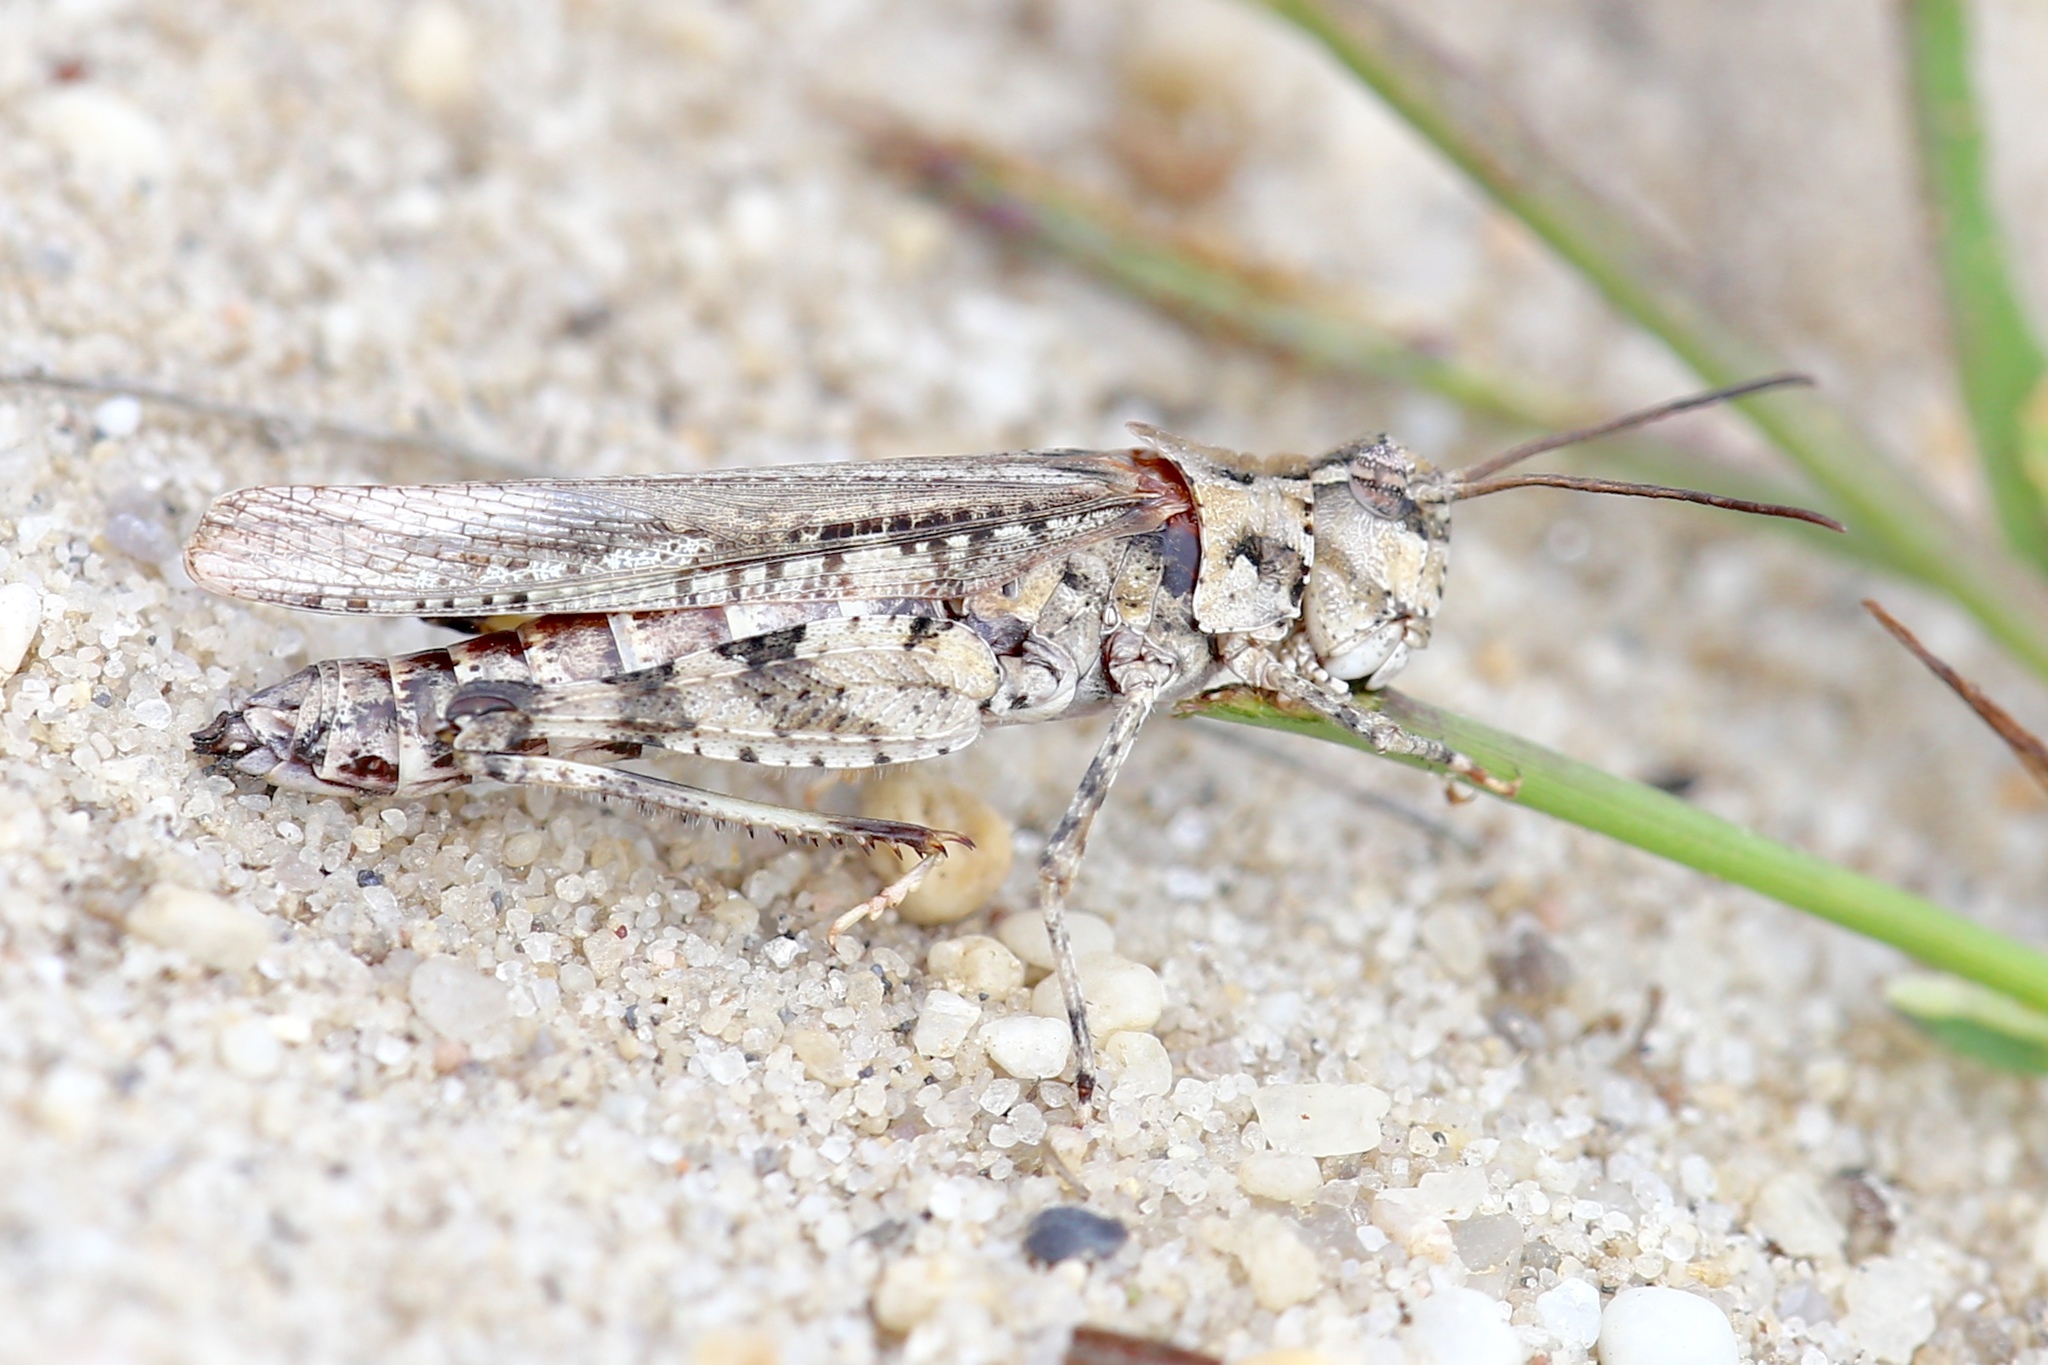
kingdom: Animalia
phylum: Arthropoda
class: Insecta
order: Orthoptera
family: Acrididae
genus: Psinidia
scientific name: Psinidia fenestralis
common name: Long-horned locust
